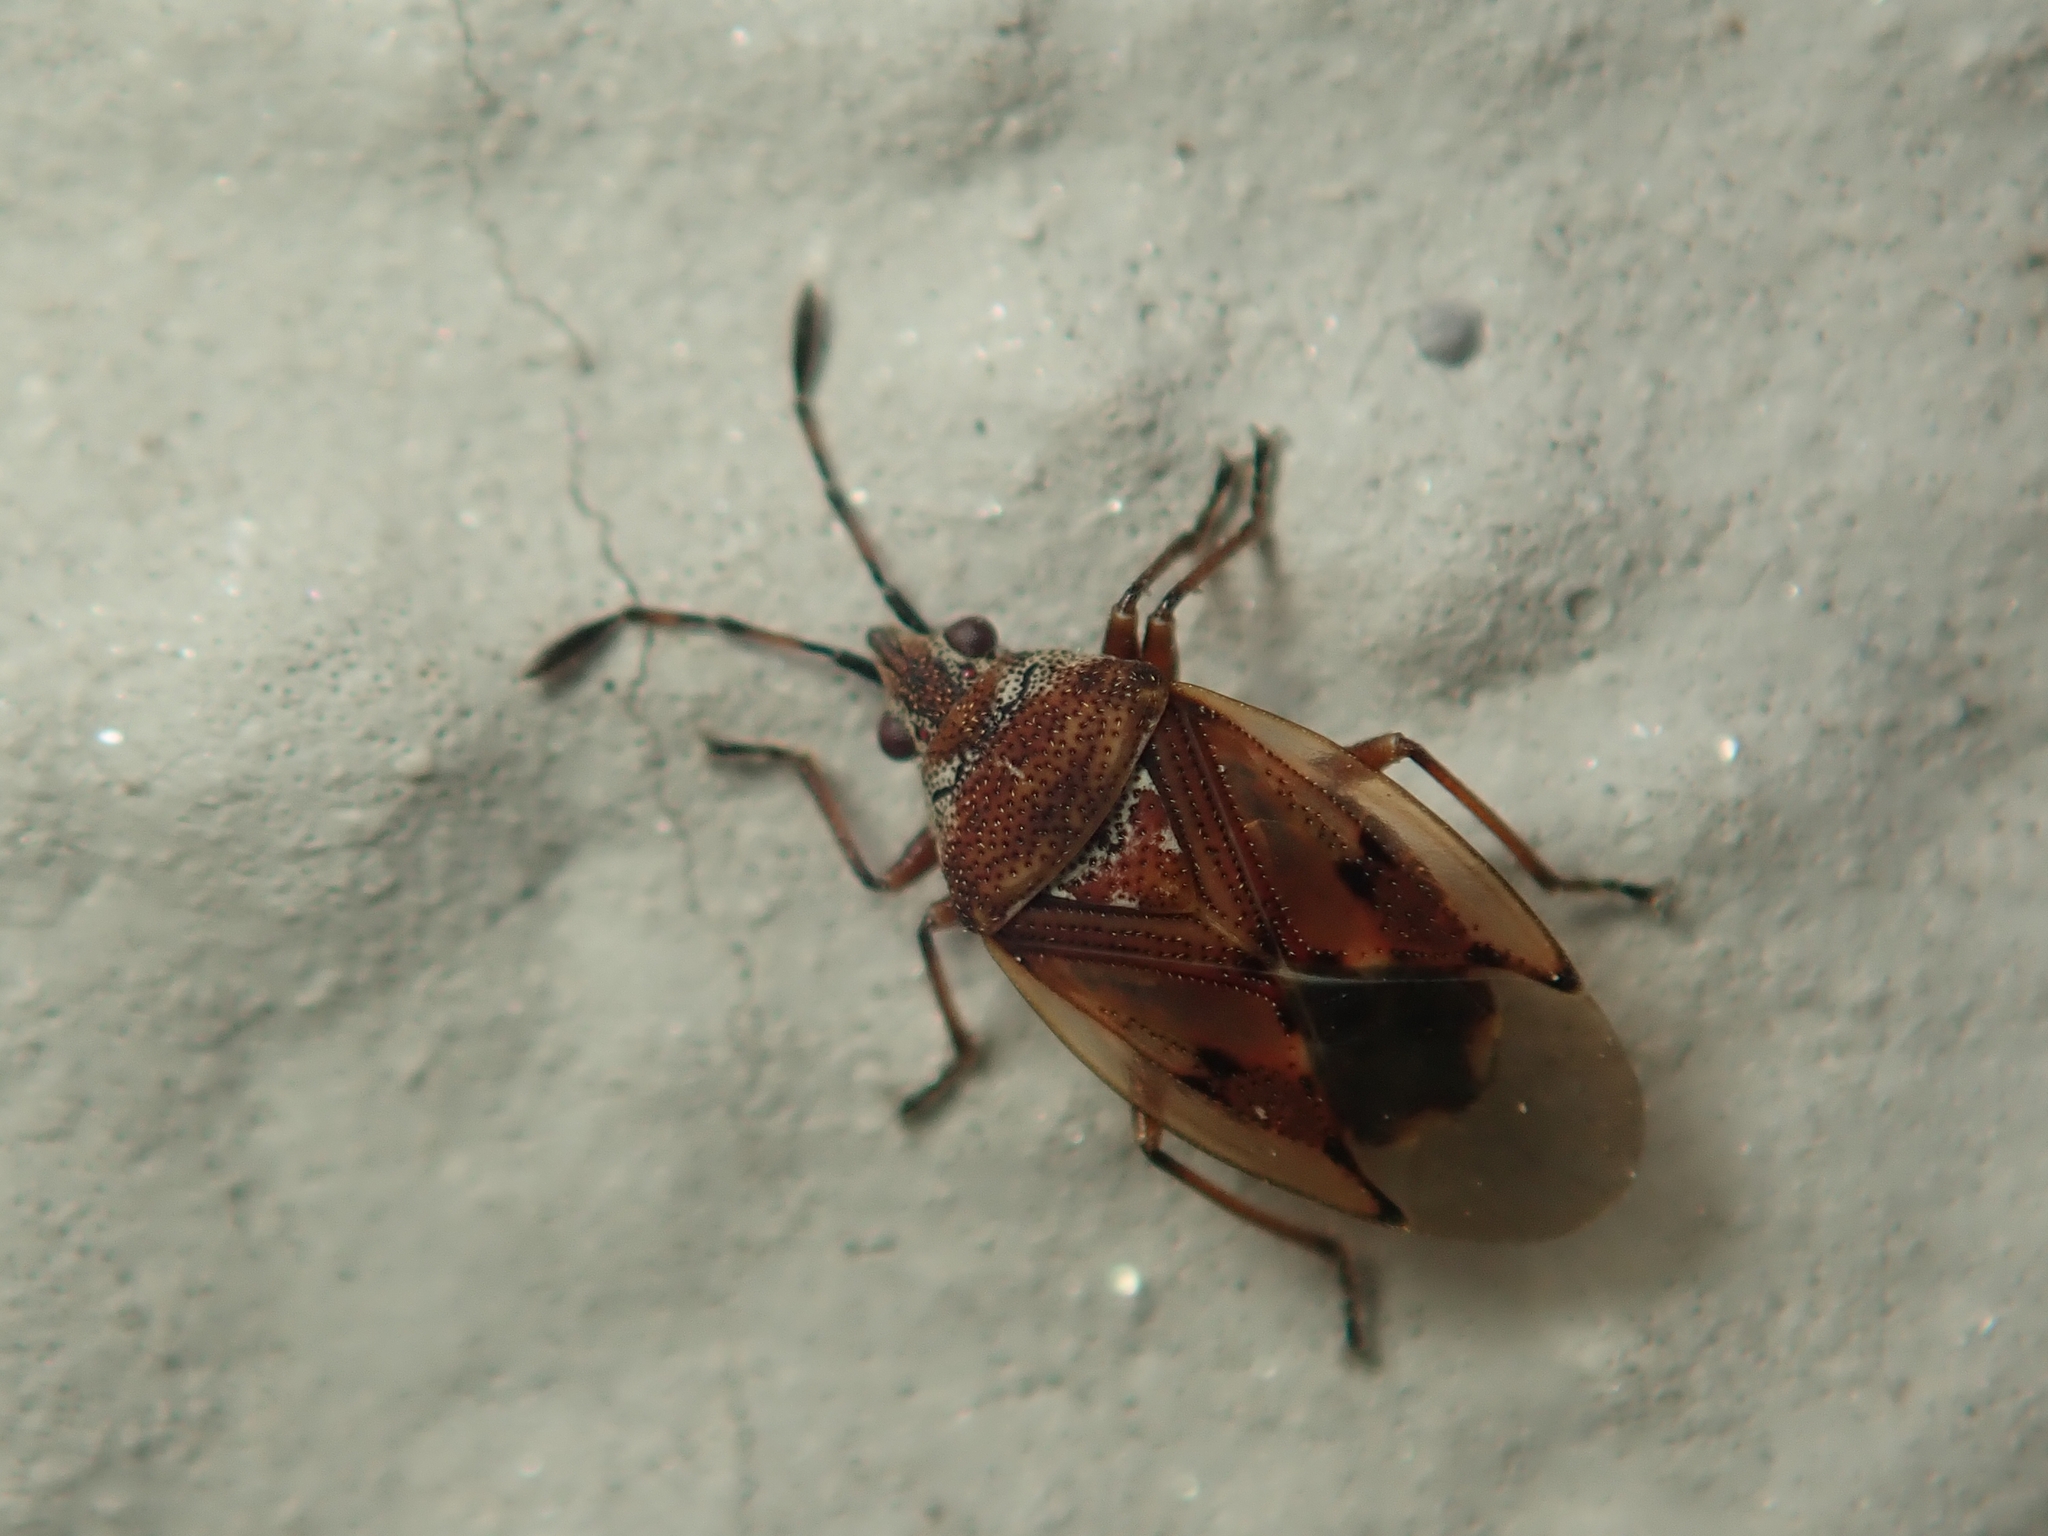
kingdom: Animalia
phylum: Arthropoda
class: Insecta
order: Hemiptera
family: Lygaeidae
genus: Kleidocerys
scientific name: Kleidocerys resedae
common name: Birch catkin bug
